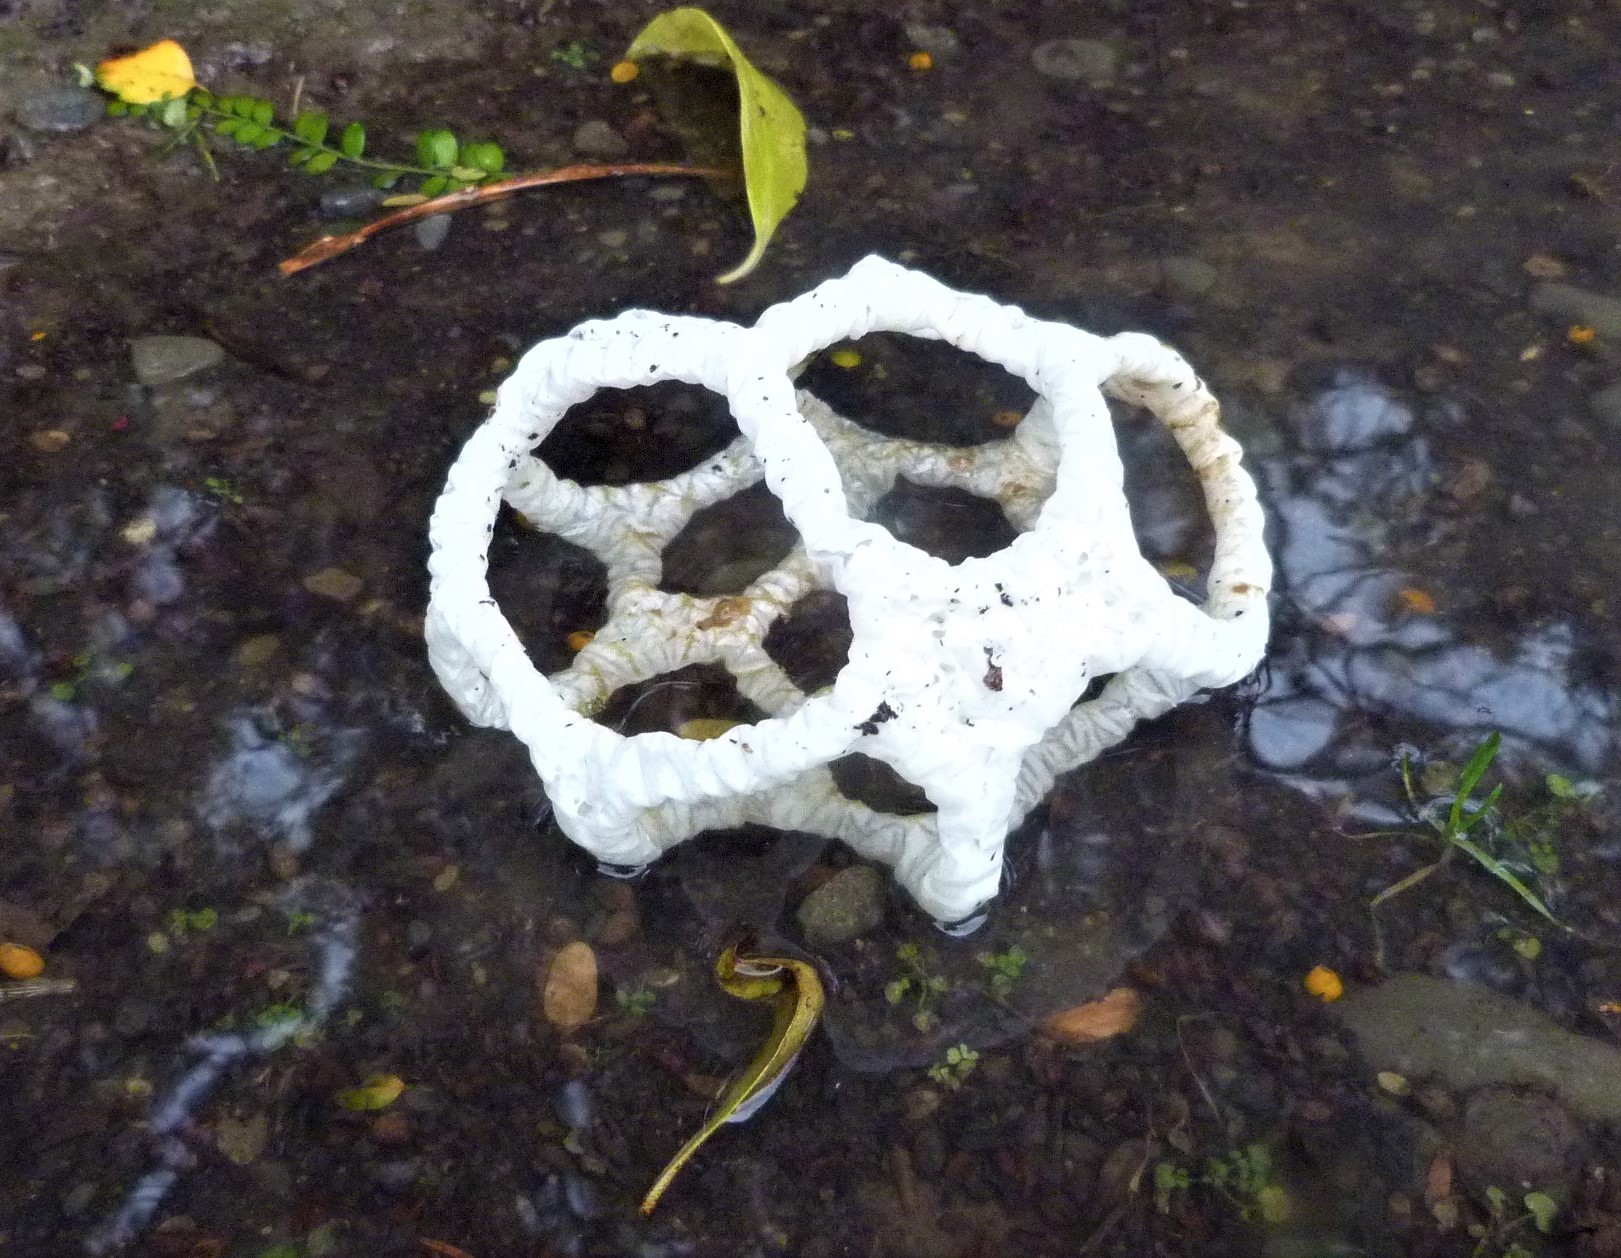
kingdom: Fungi
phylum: Basidiomycota
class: Agaricomycetes
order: Phallales
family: Phallaceae
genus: Ileodictyon
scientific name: Ileodictyon cibarium
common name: Basket fungus
